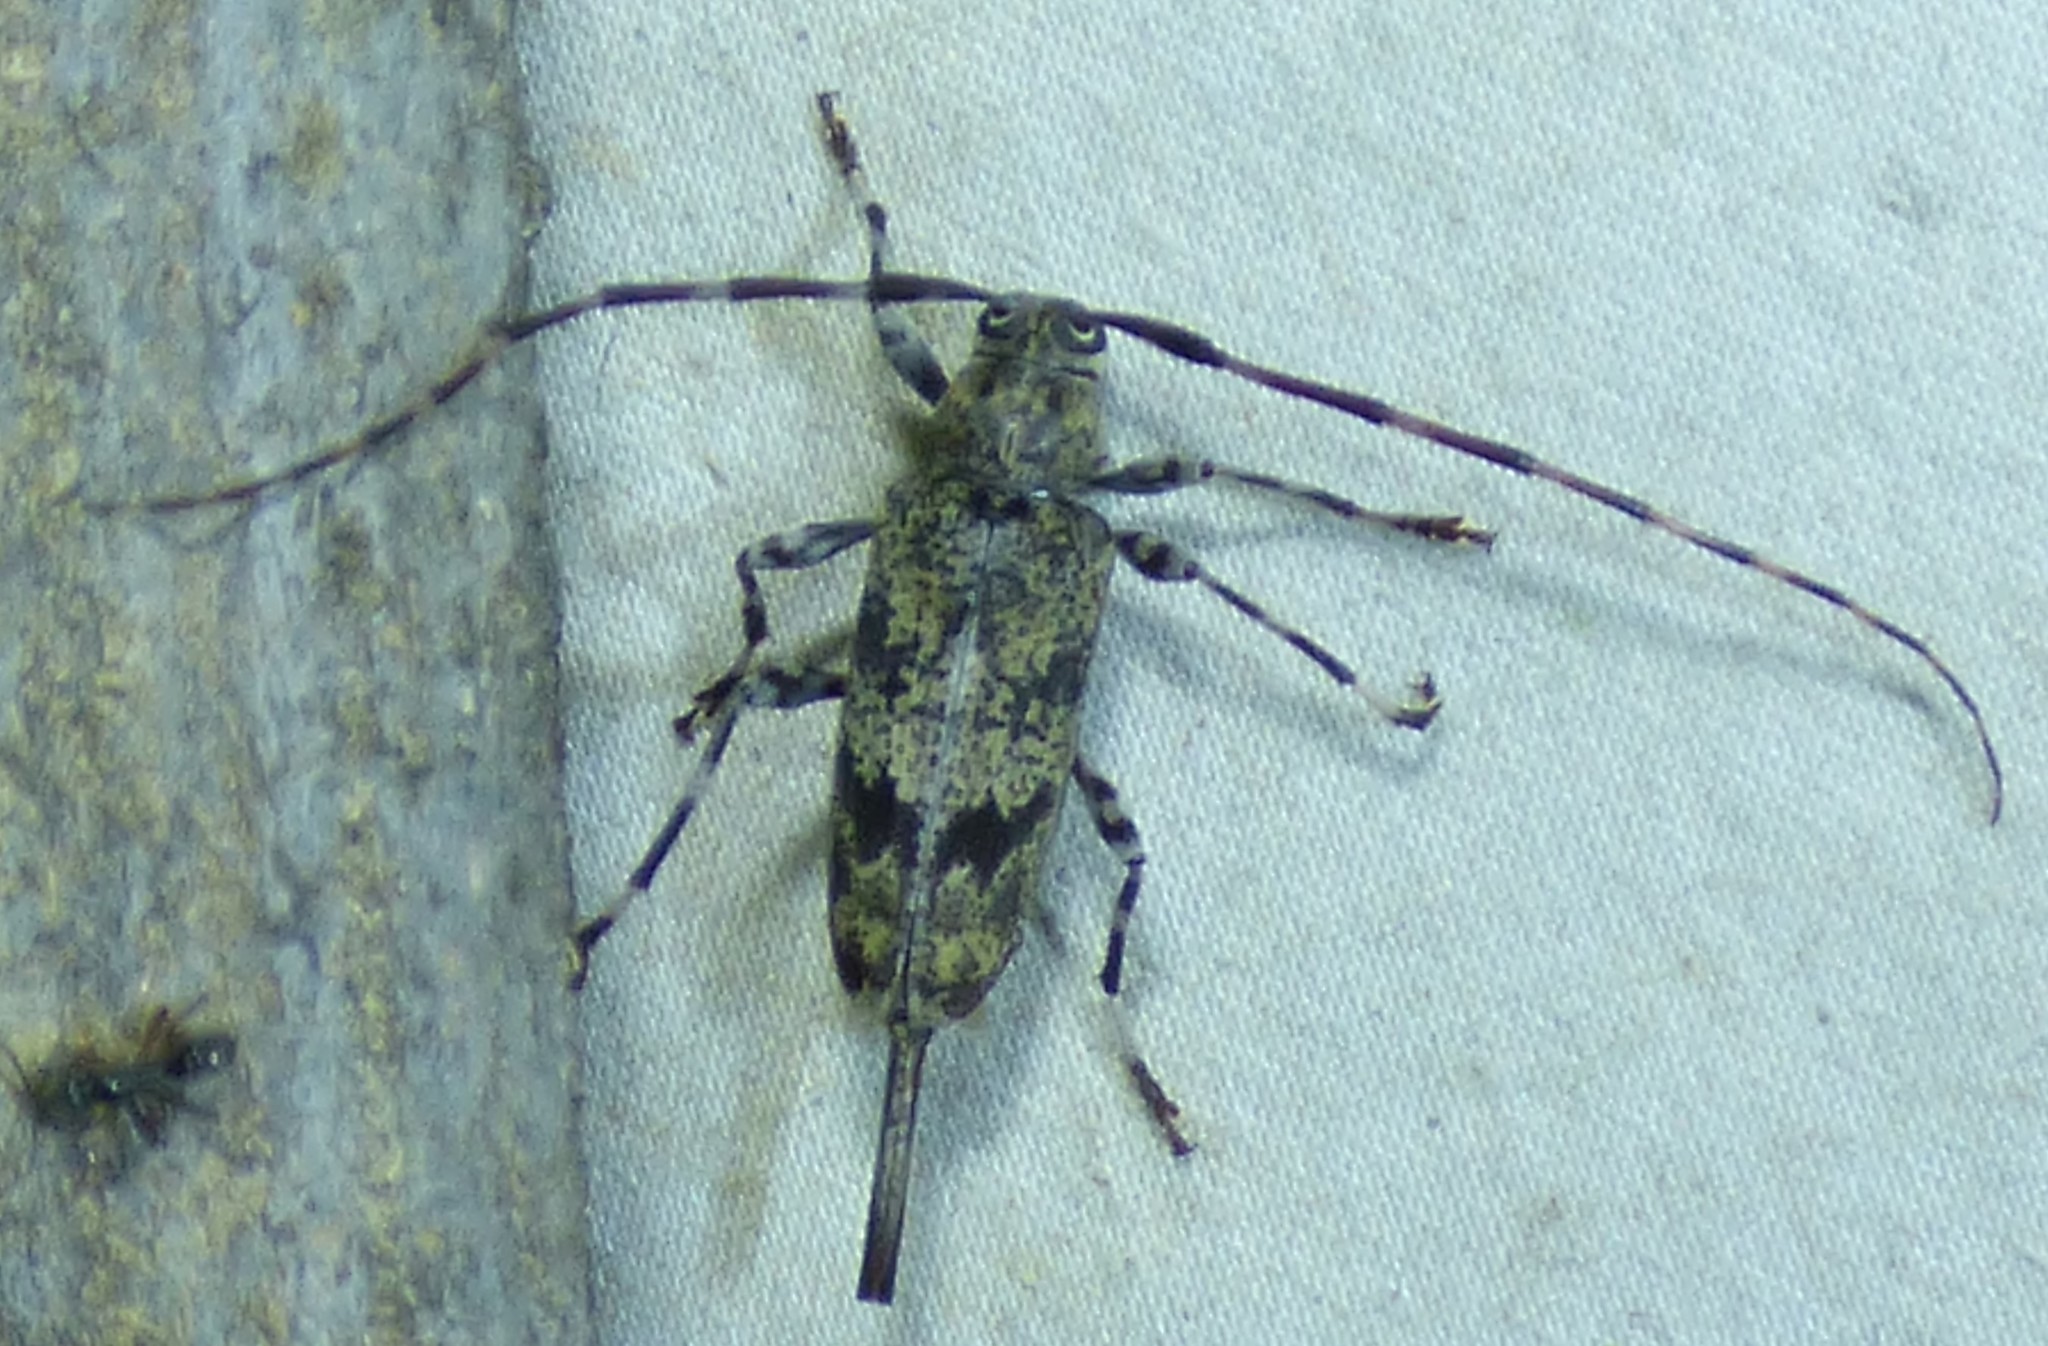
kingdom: Animalia
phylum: Arthropoda
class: Insecta
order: Coleoptera
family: Cerambycidae
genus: Graphisurus
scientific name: Graphisurus fasciatus
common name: Banded graphisurus
